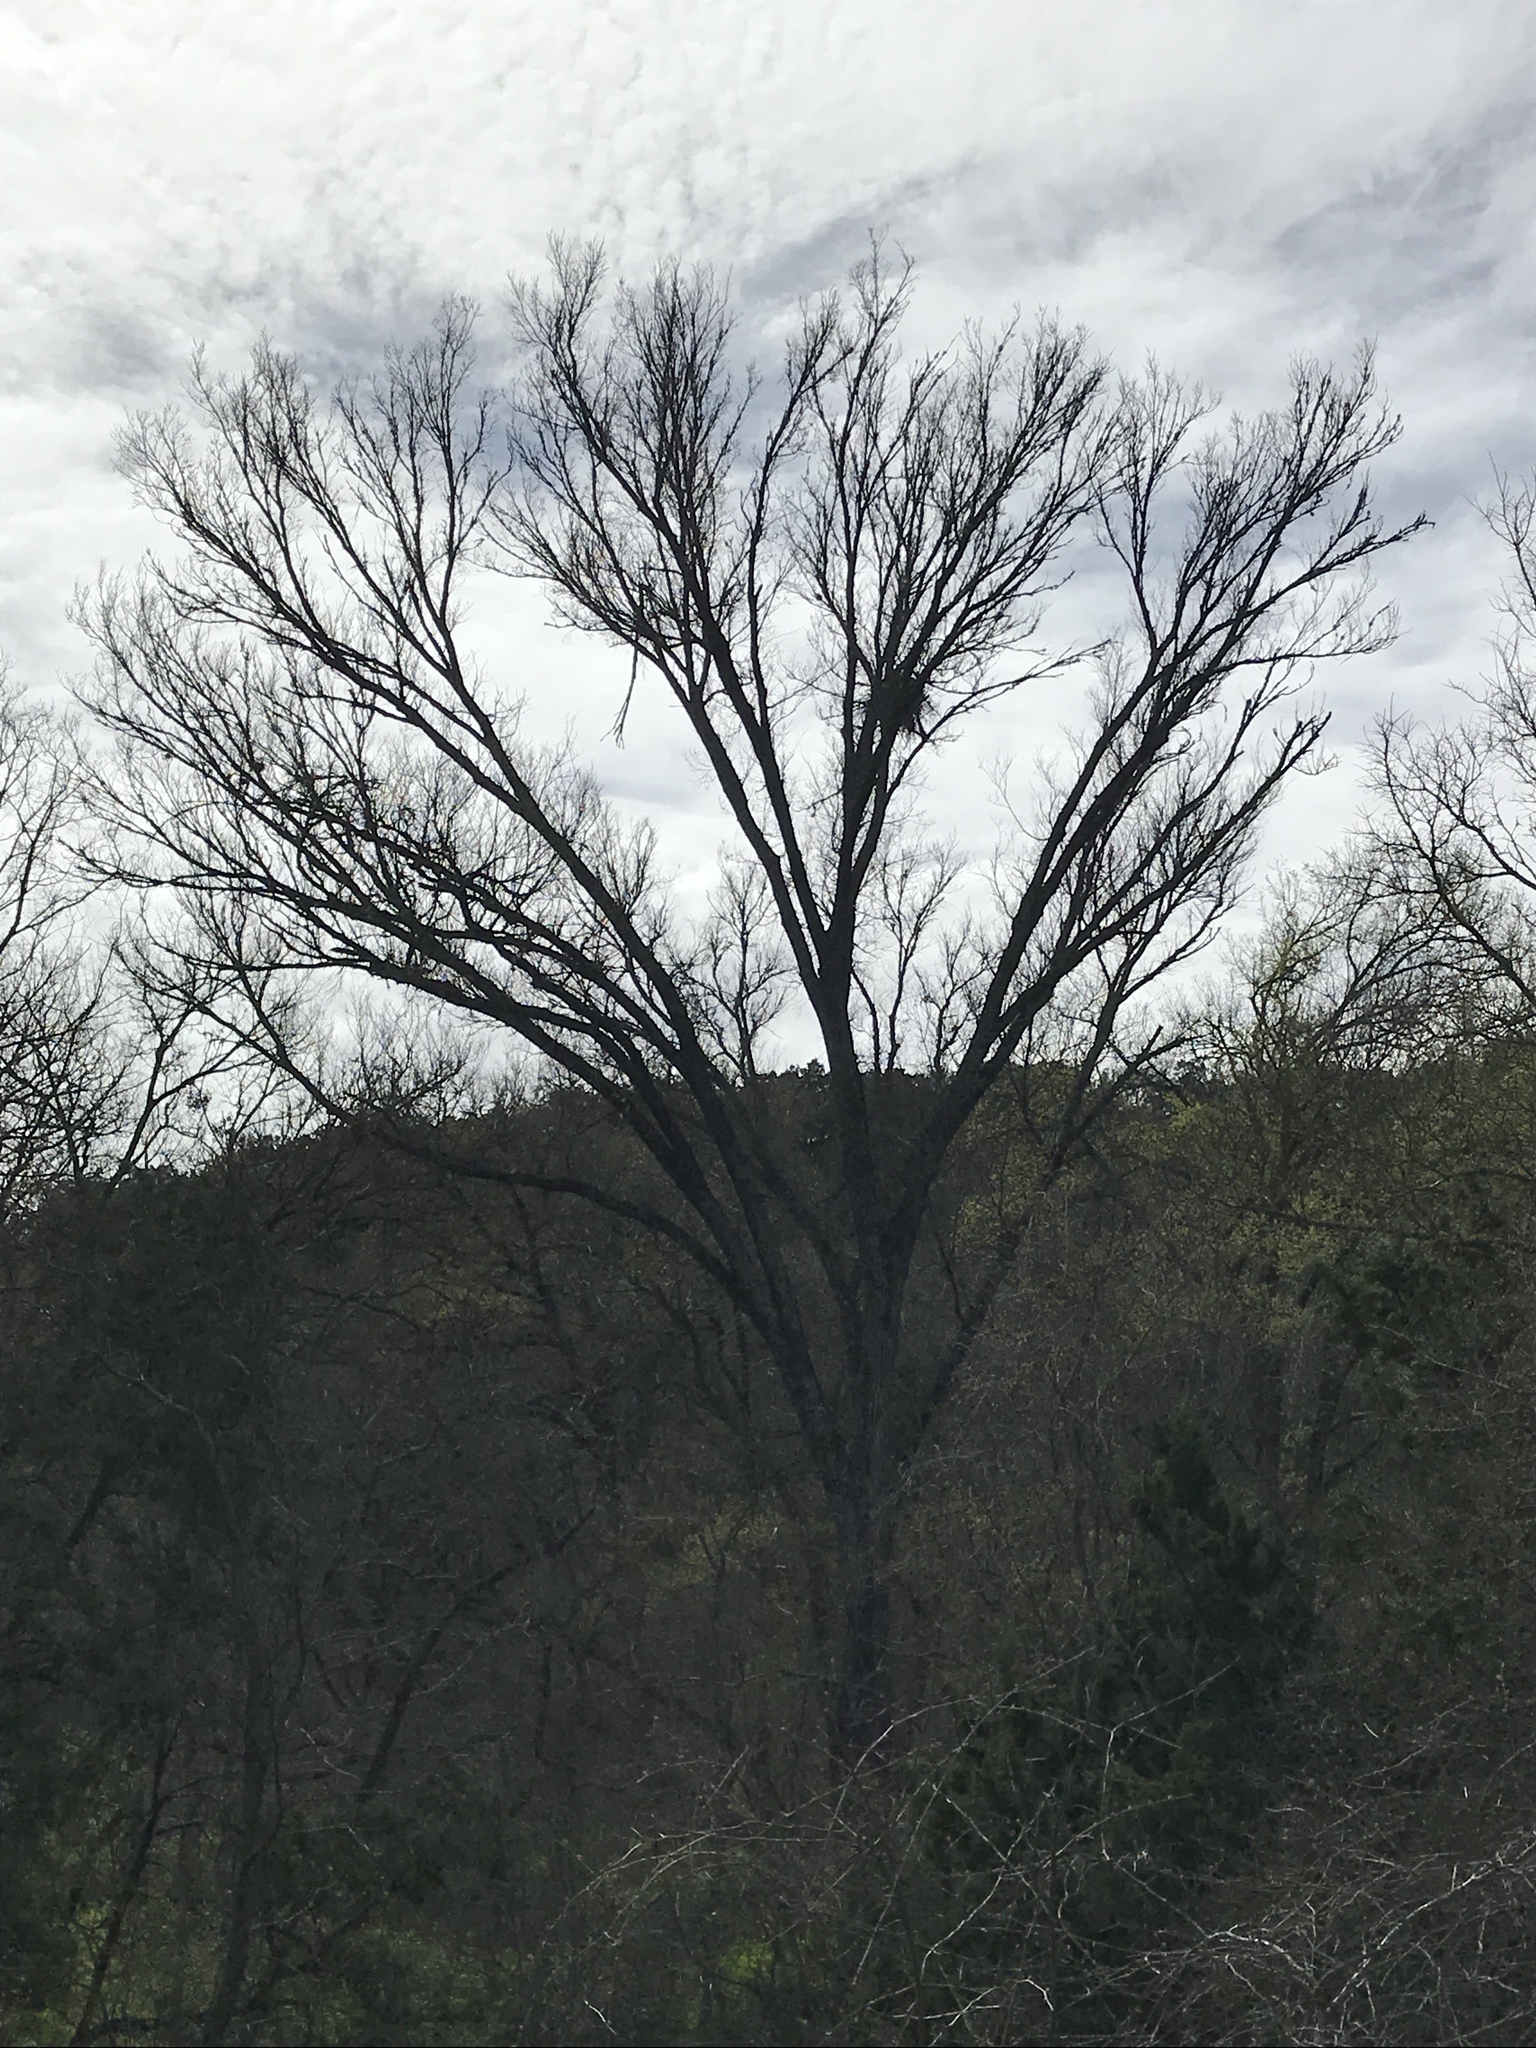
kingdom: Plantae
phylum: Tracheophyta
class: Magnoliopsida
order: Rosales
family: Ulmaceae
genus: Ulmus
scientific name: Ulmus americana
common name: American elm
